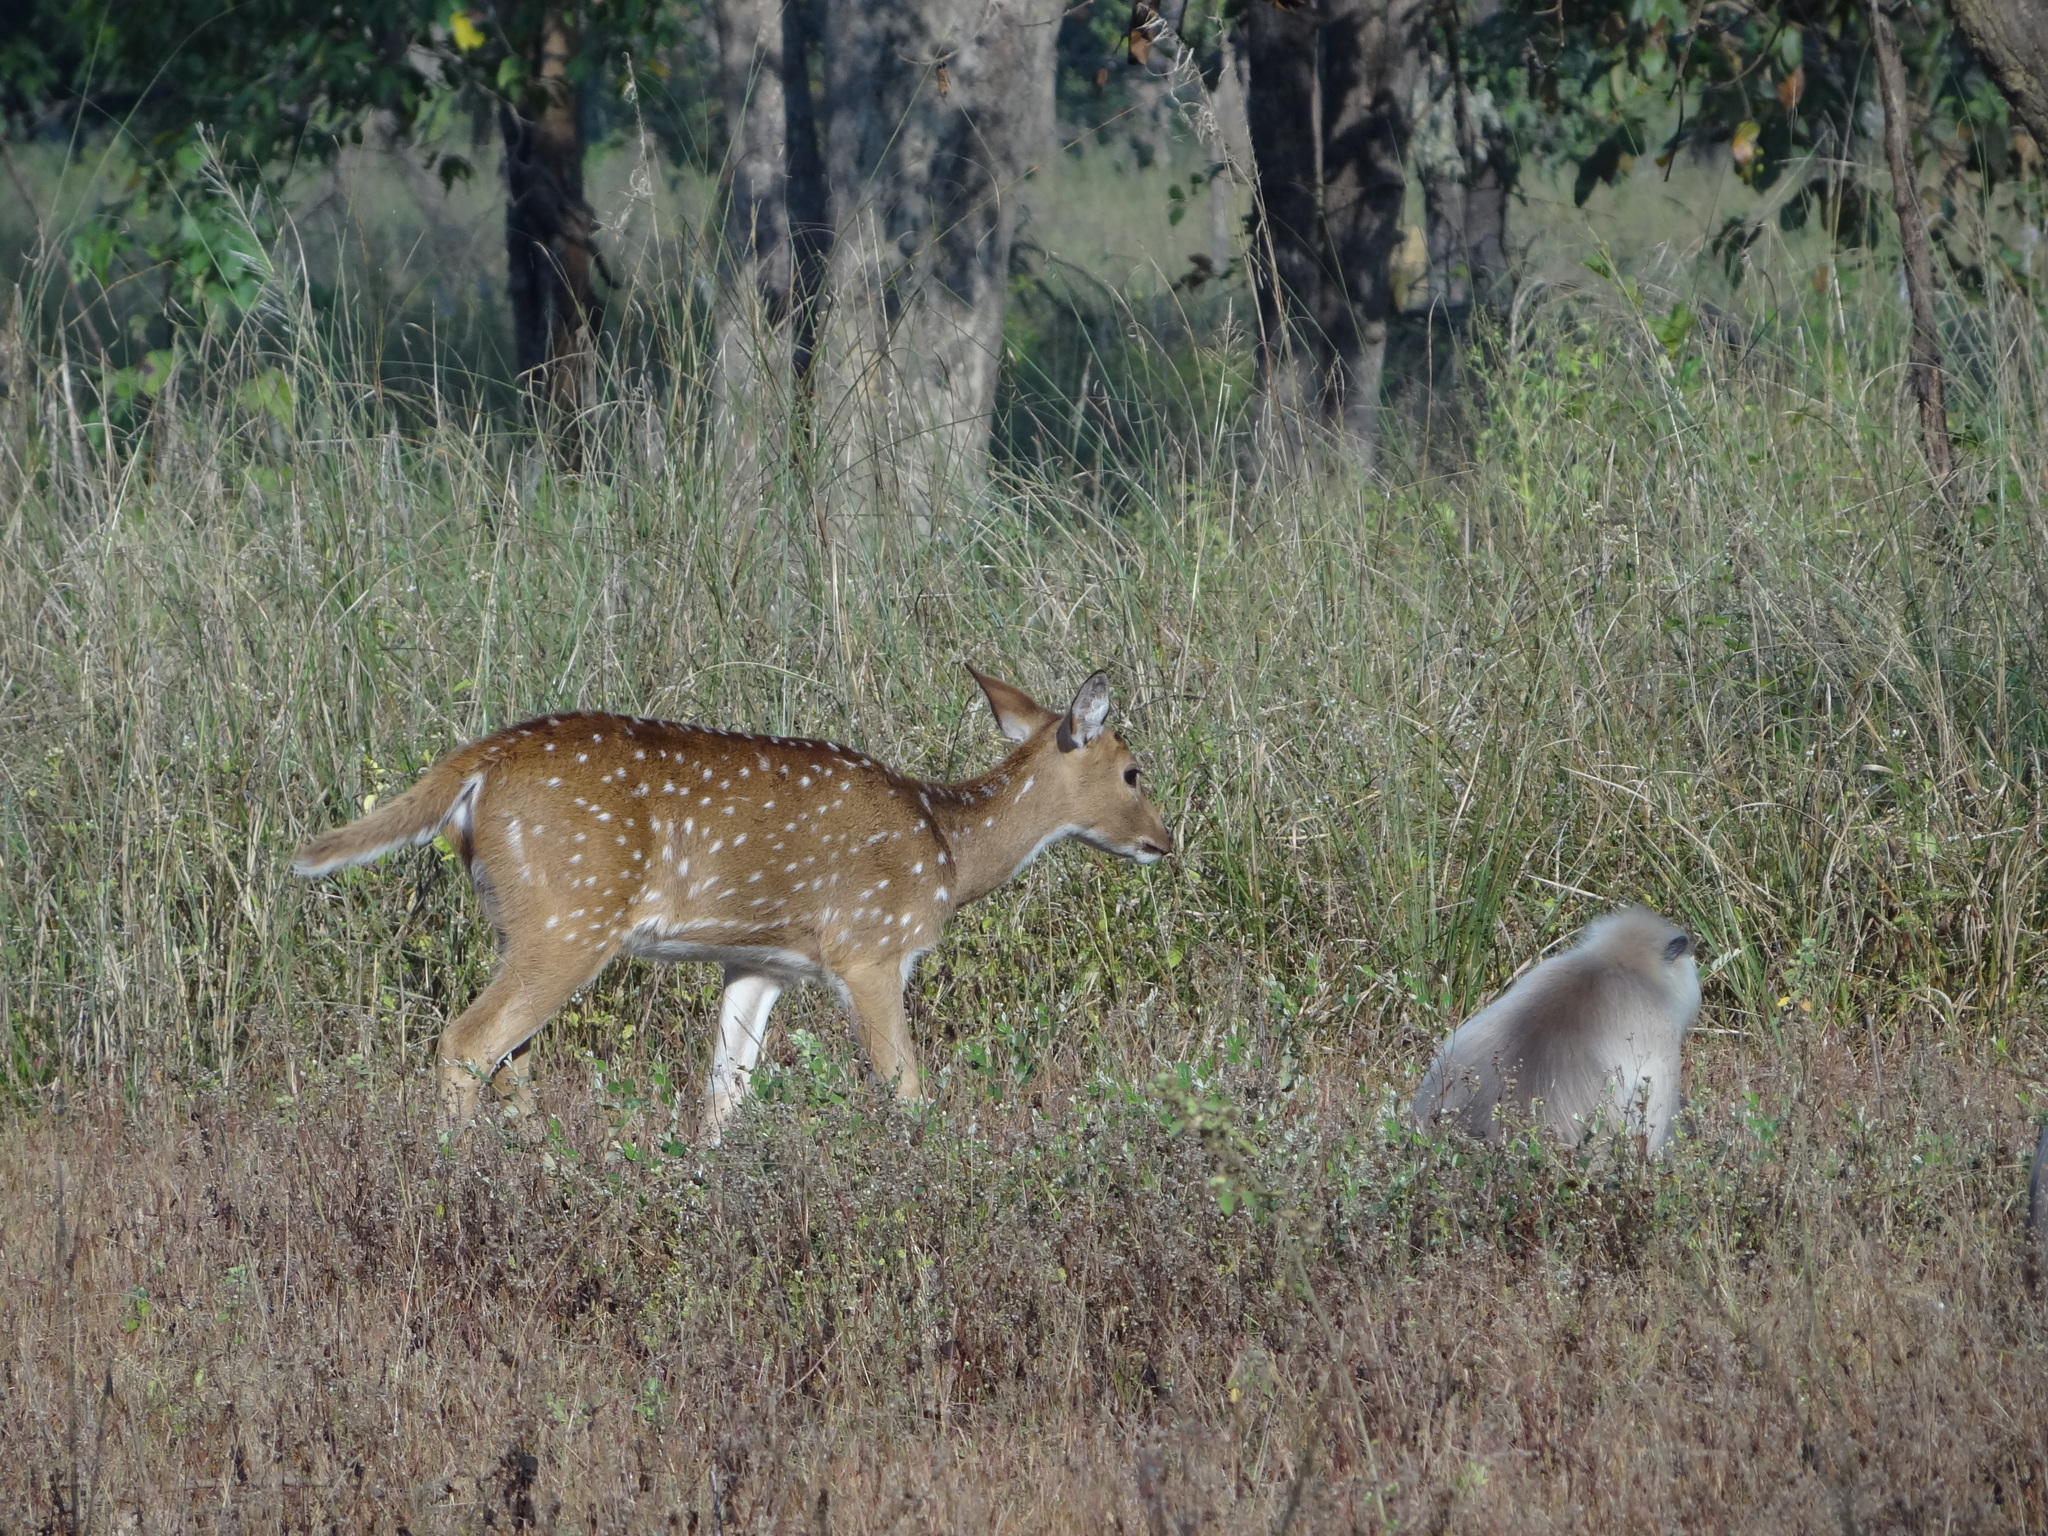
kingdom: Animalia
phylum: Chordata
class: Mammalia
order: Artiodactyla
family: Cervidae
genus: Axis
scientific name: Axis axis
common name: Chital
